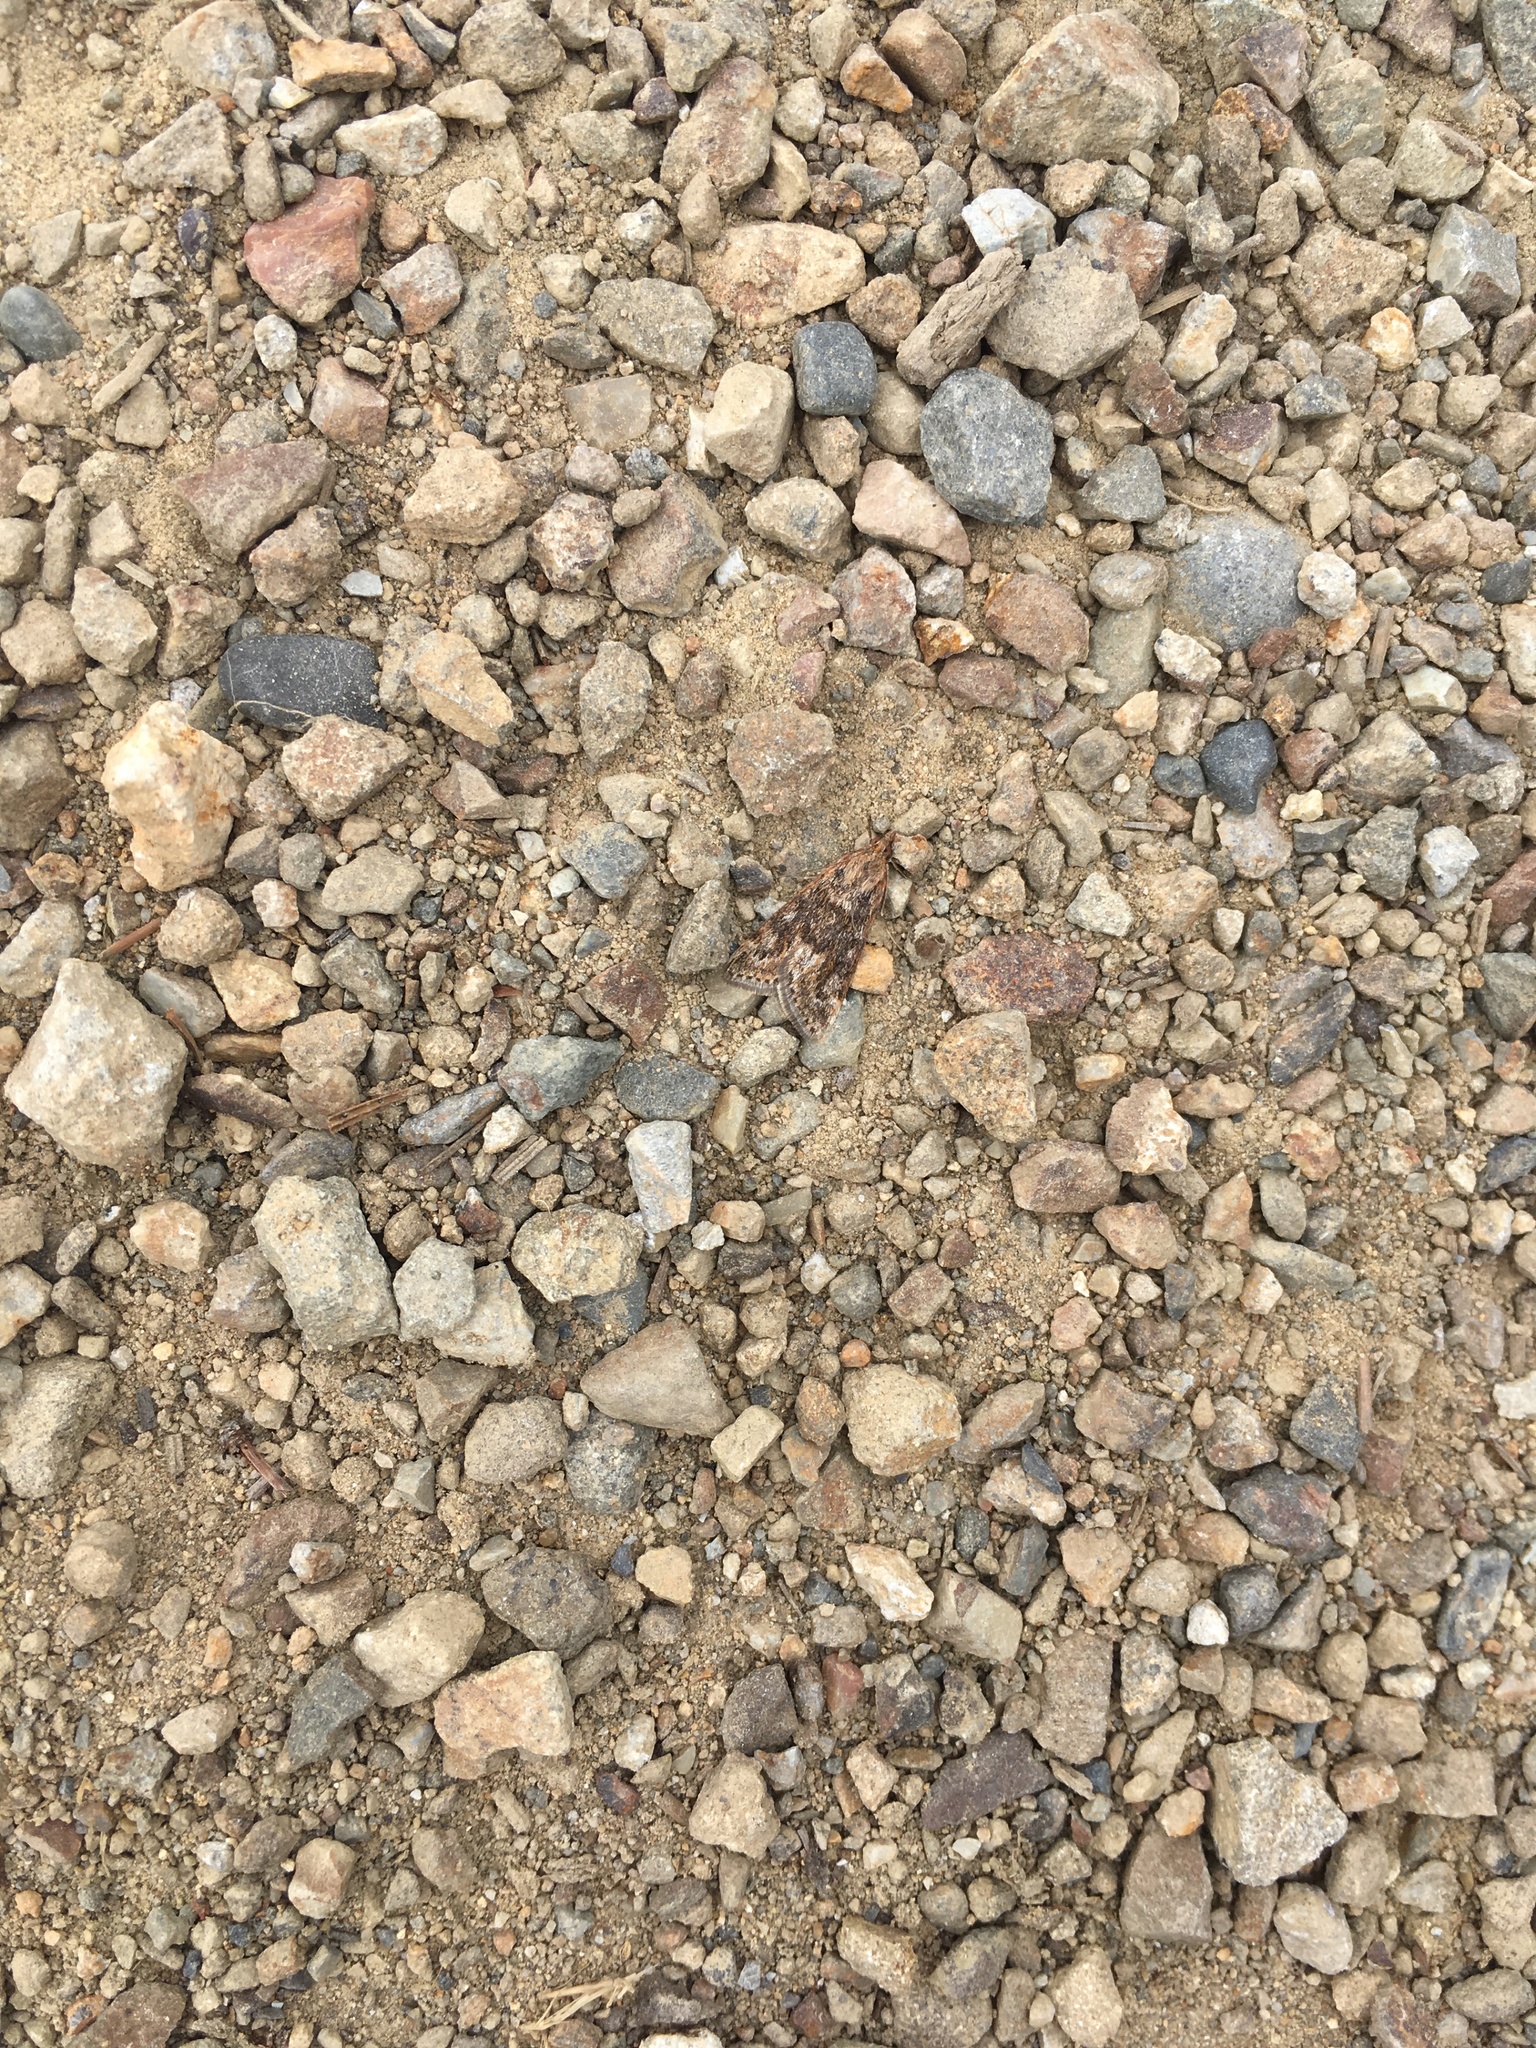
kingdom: Animalia
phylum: Arthropoda
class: Insecta
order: Lepidoptera
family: Crambidae
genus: Achyra
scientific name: Achyra affinitalis
